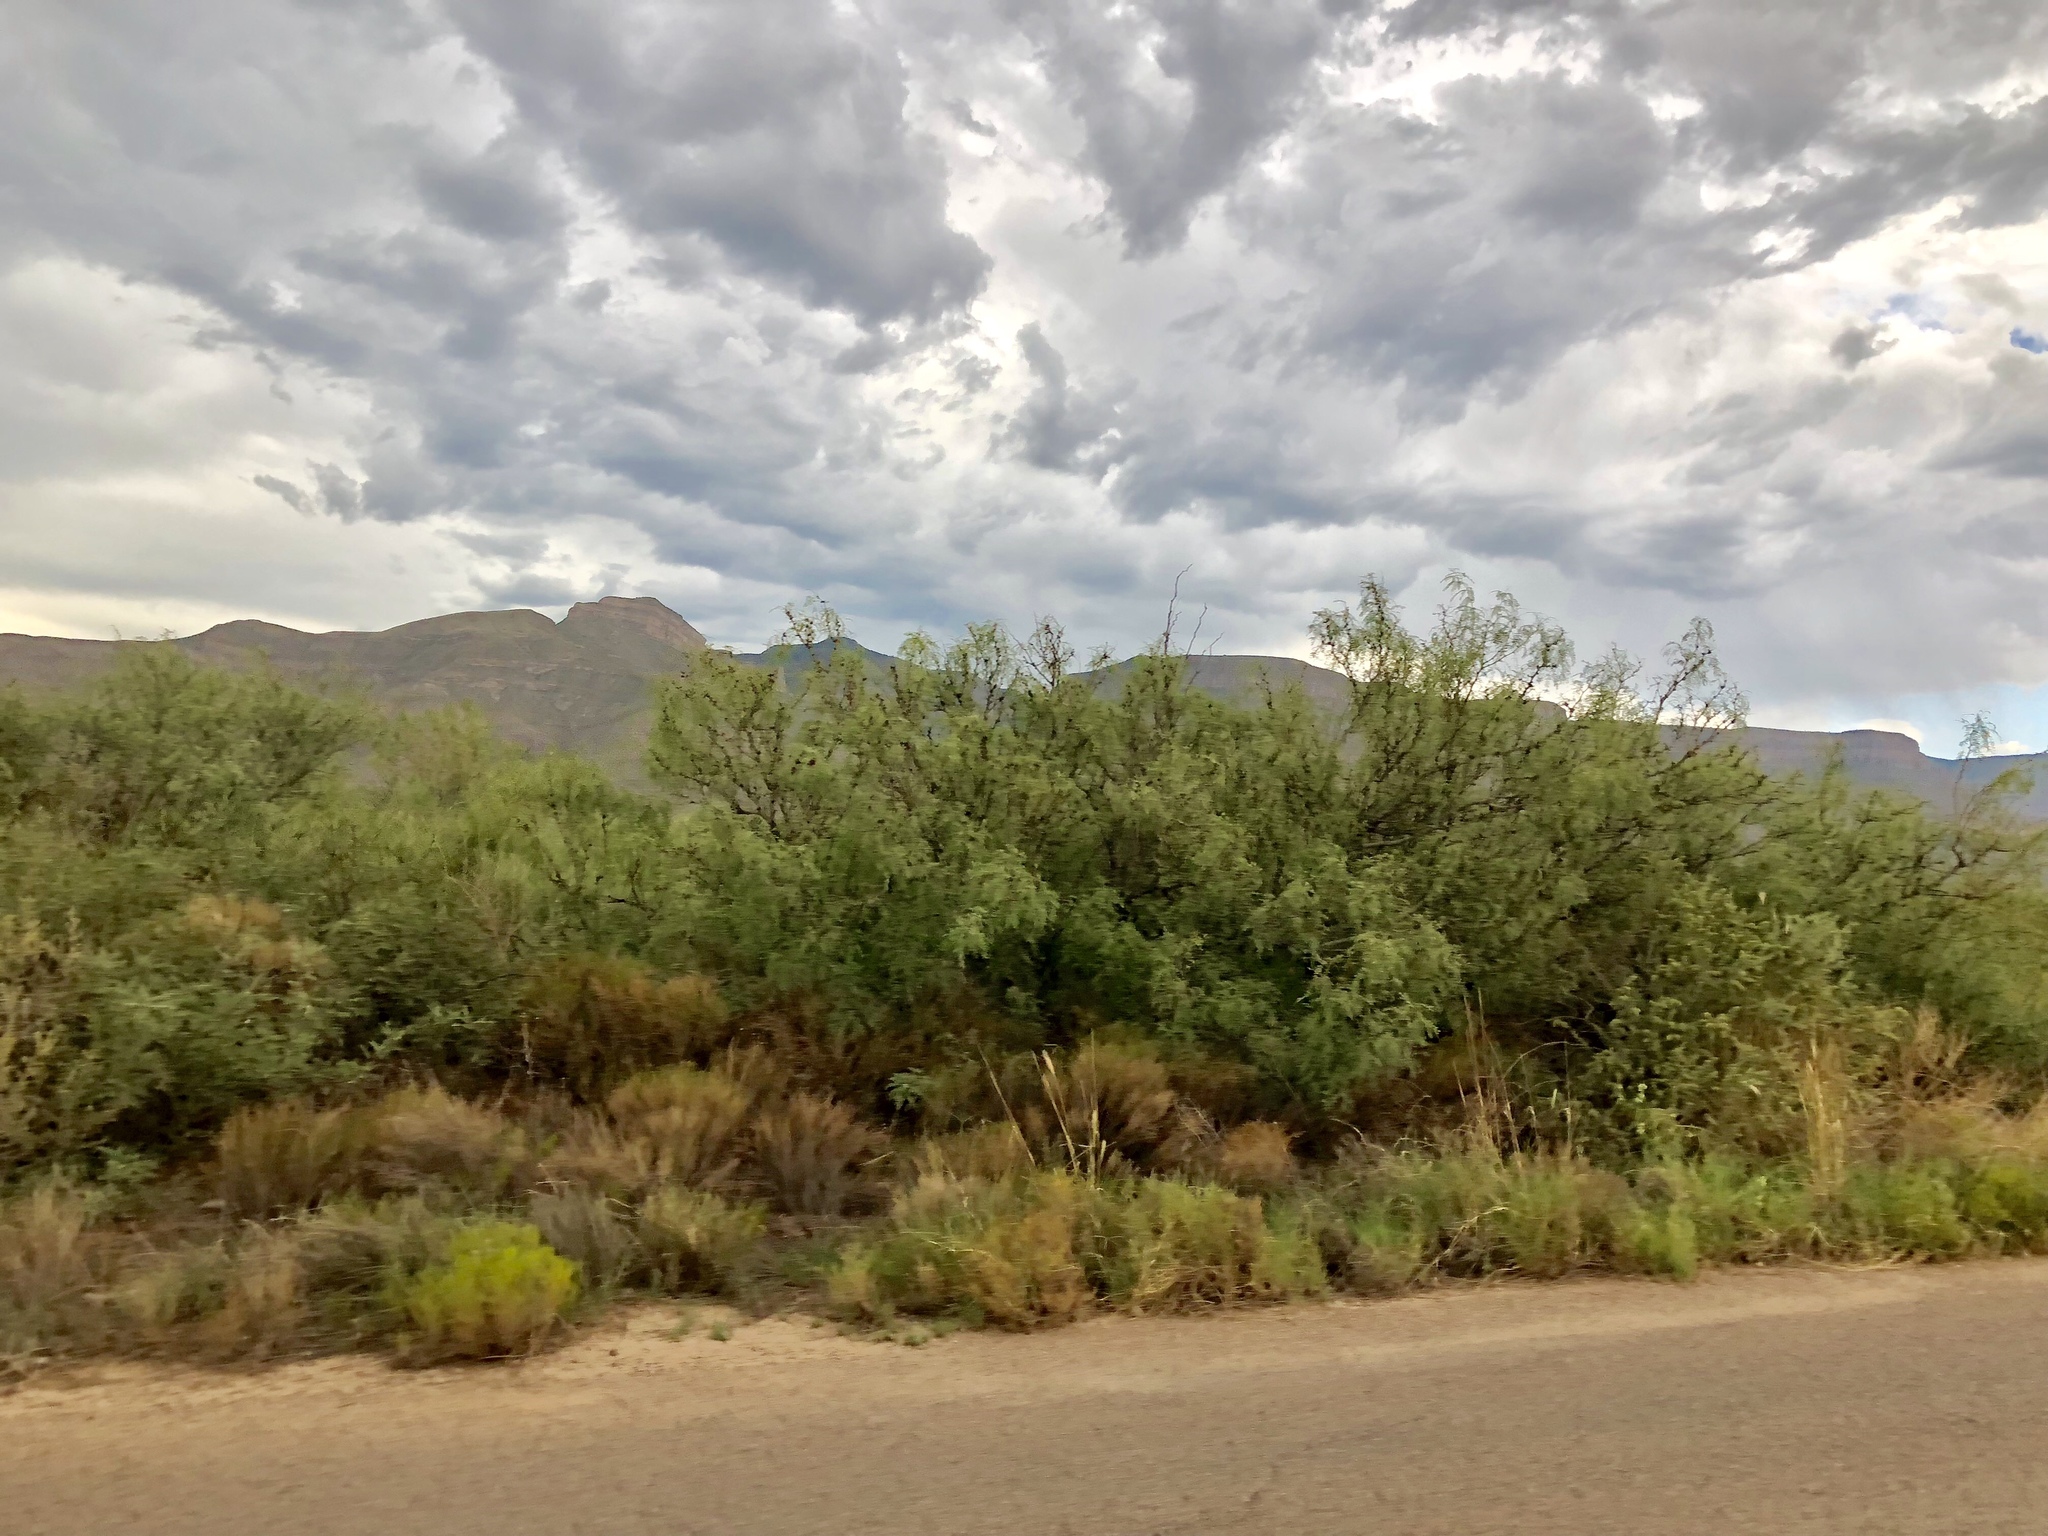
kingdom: Plantae
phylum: Tracheophyta
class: Magnoliopsida
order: Fabales
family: Fabaceae
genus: Prosopis
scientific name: Prosopis glandulosa
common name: Honey mesquite
